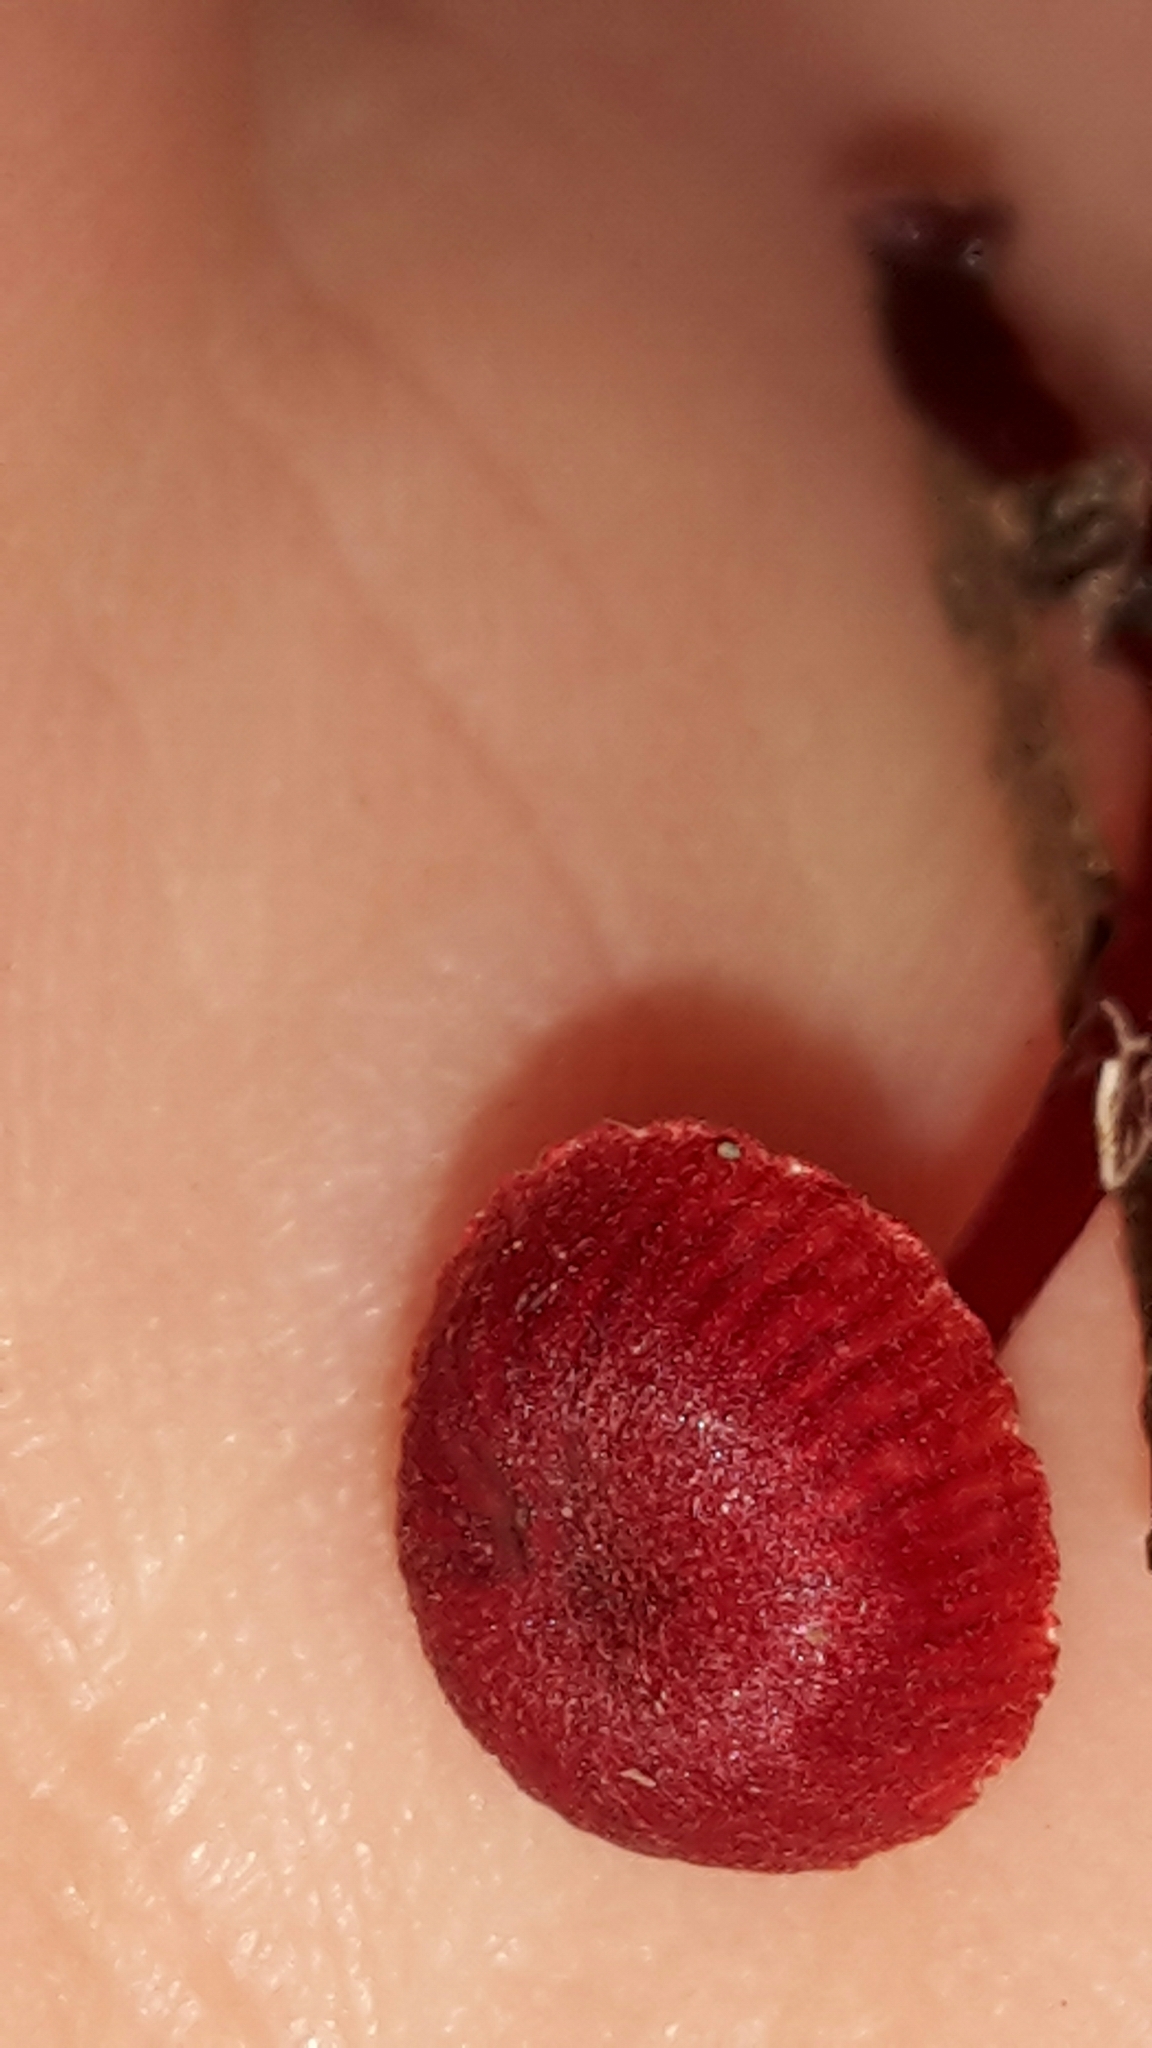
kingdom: Fungi
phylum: Basidiomycota
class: Agaricomycetes
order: Agaricales
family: Mycenaceae
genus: Cruentomycena
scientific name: Cruentomycena viscidocruenta
